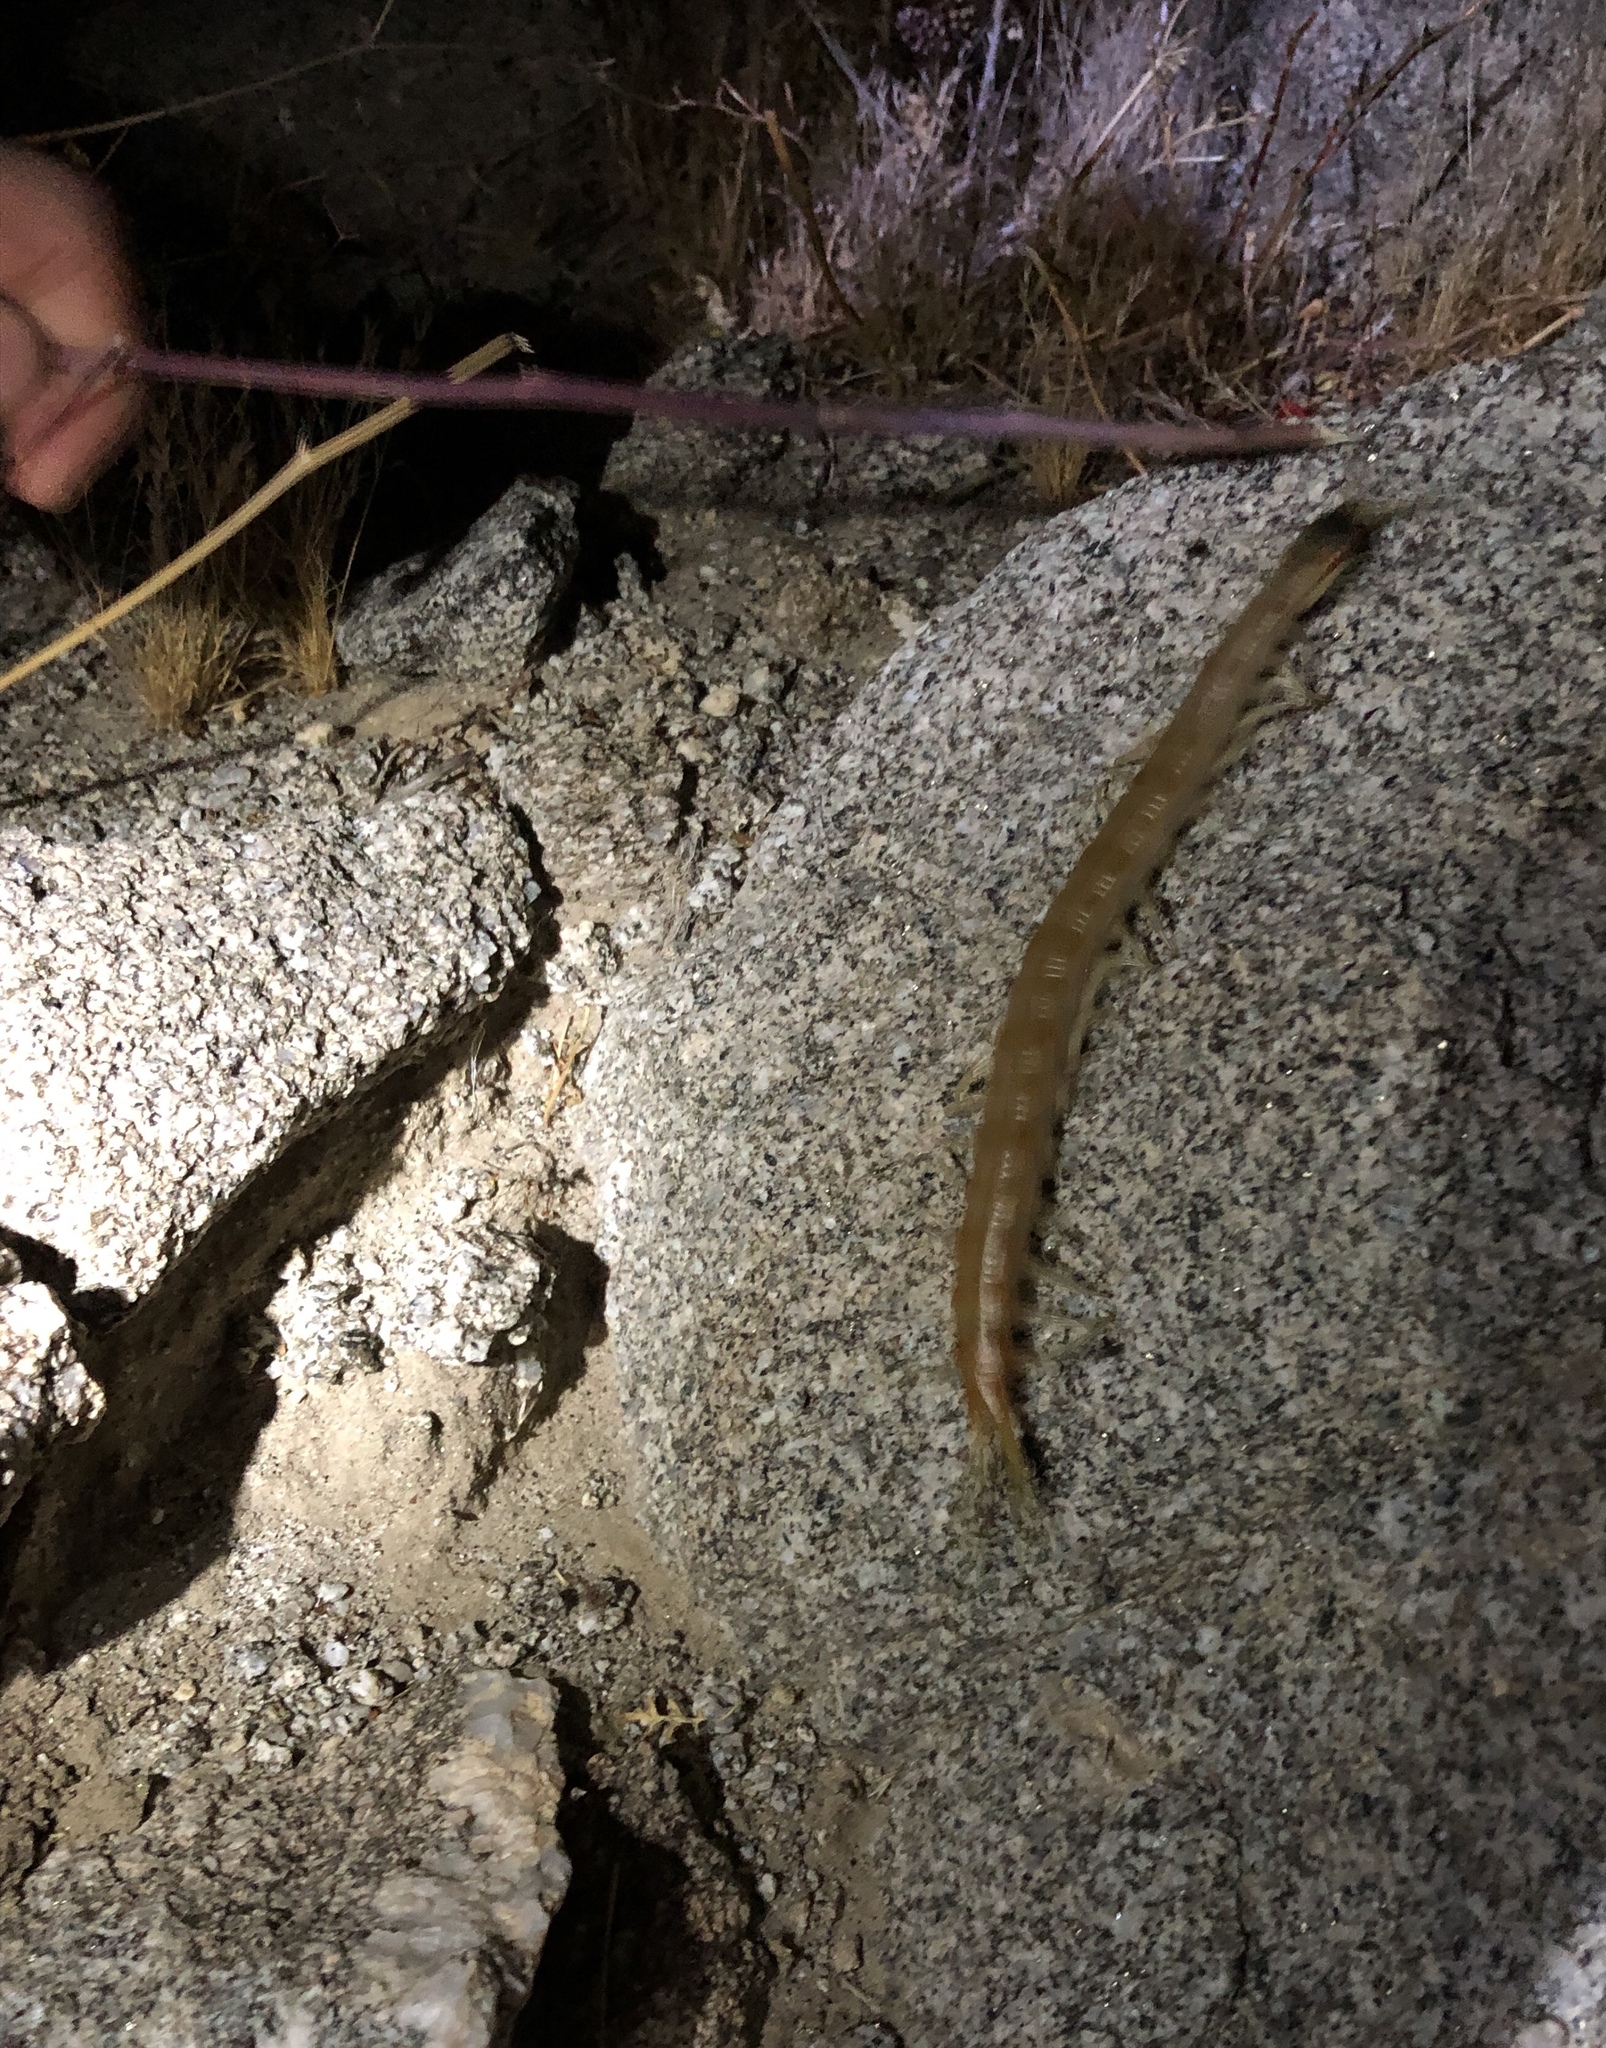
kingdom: Animalia
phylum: Arthropoda
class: Chilopoda
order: Scolopendromorpha
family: Scolopendridae
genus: Scolopendra
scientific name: Scolopendra aztecorum
